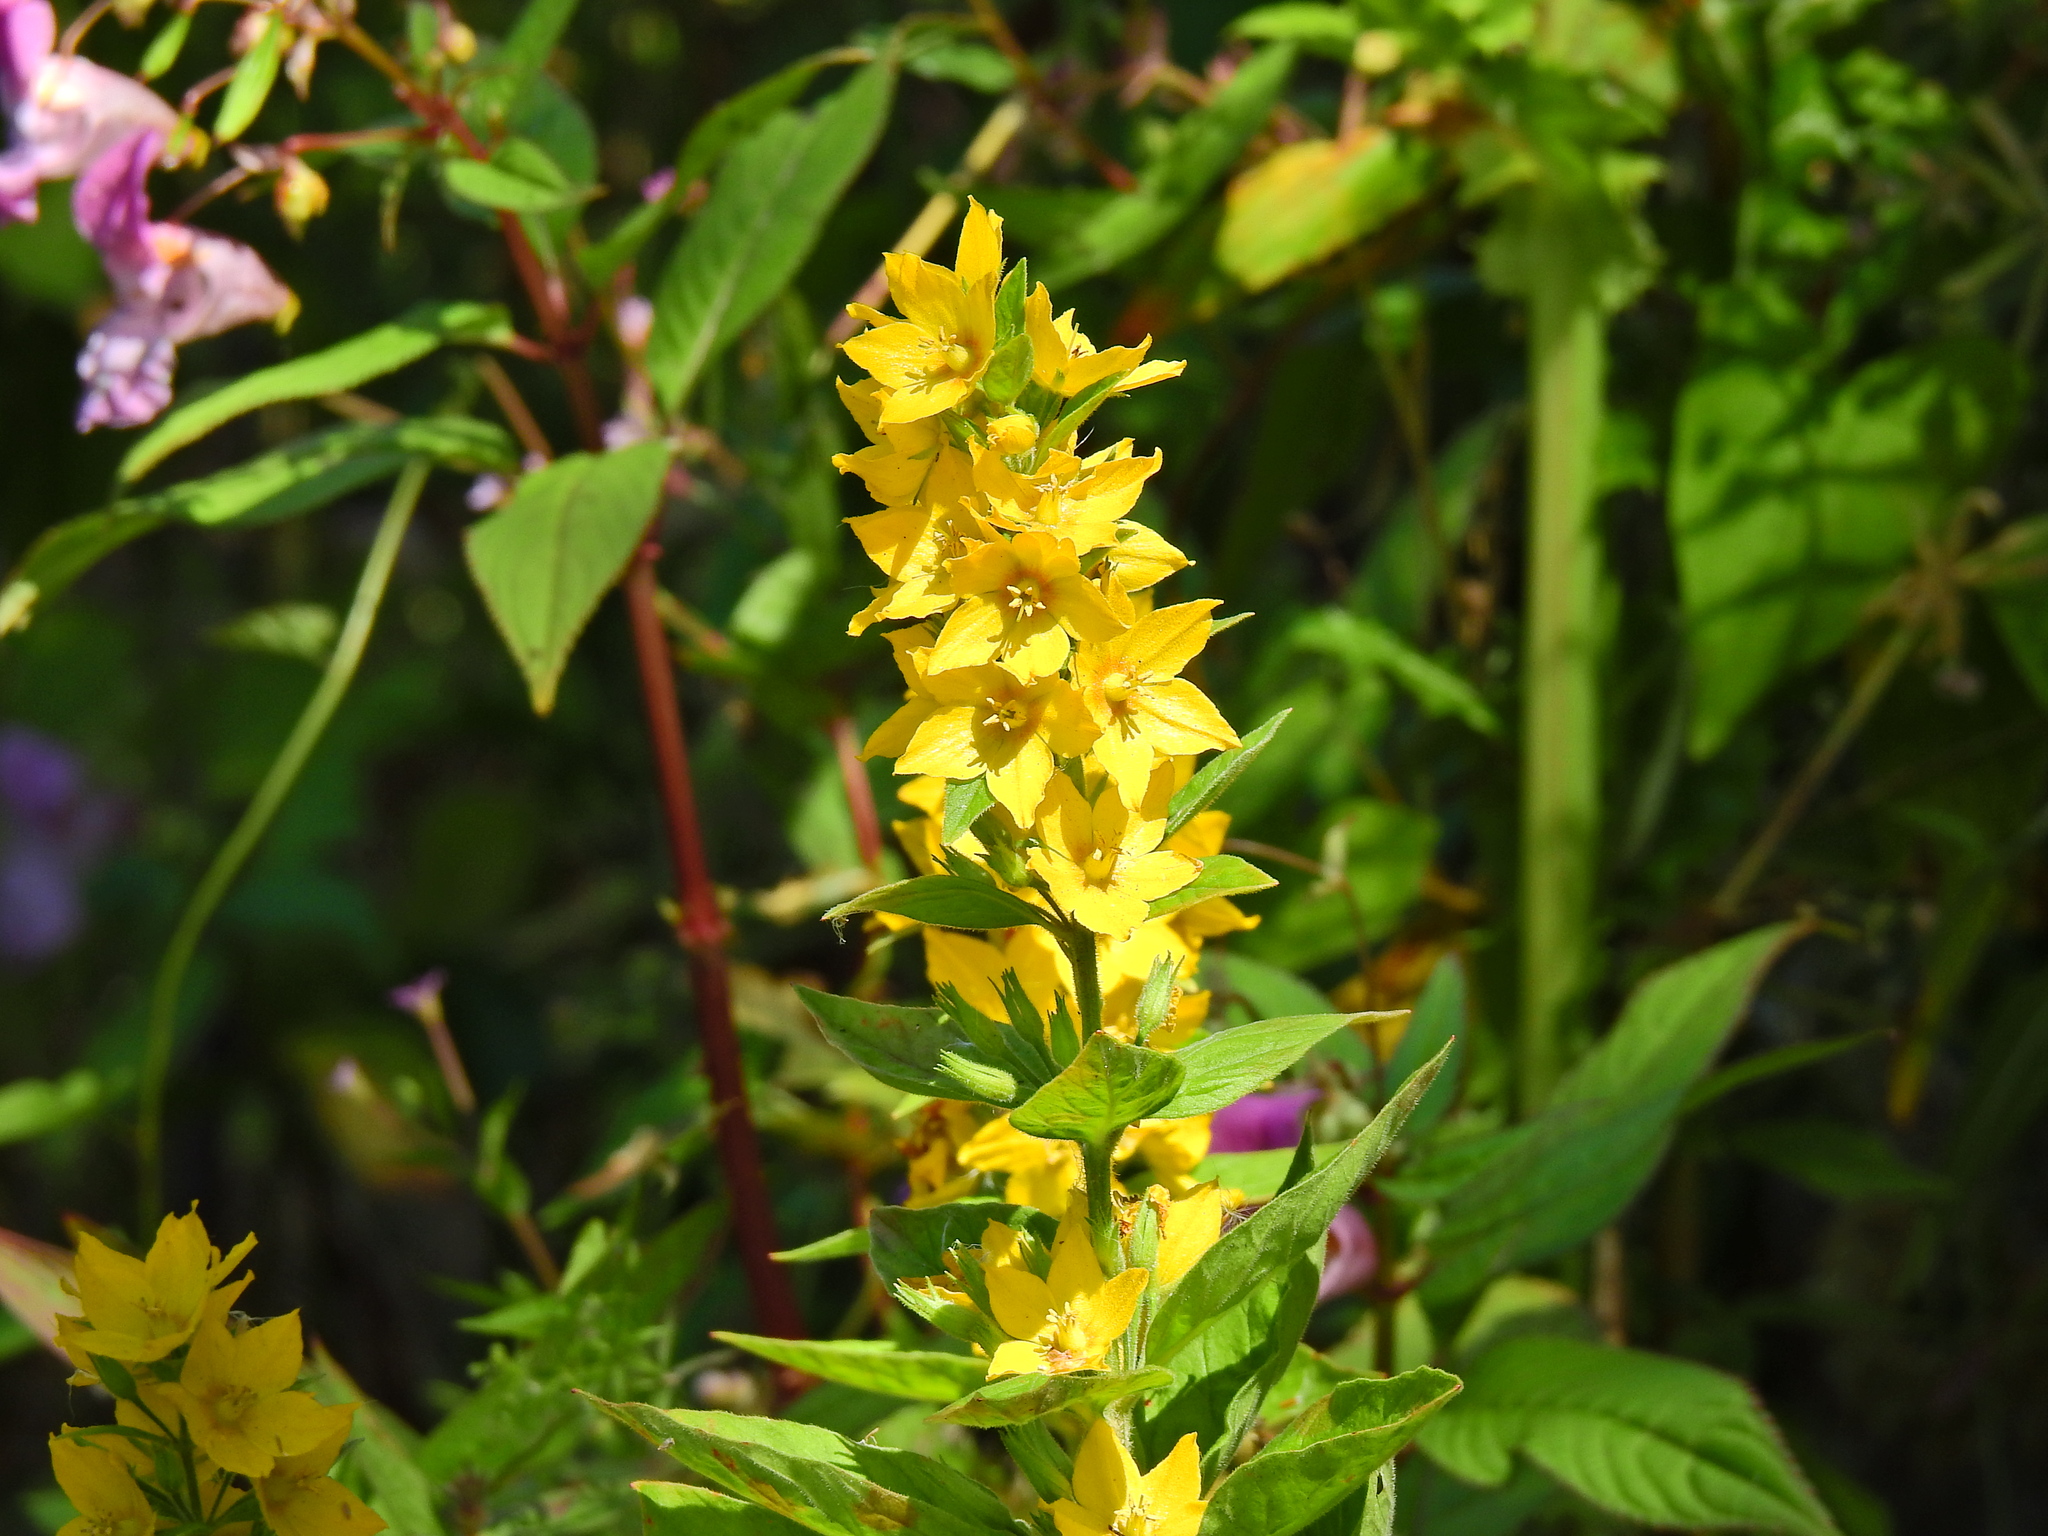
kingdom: Plantae
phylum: Tracheophyta
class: Magnoliopsida
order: Ericales
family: Primulaceae
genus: Lysimachia
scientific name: Lysimachia punctata
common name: Dotted loosestrife
